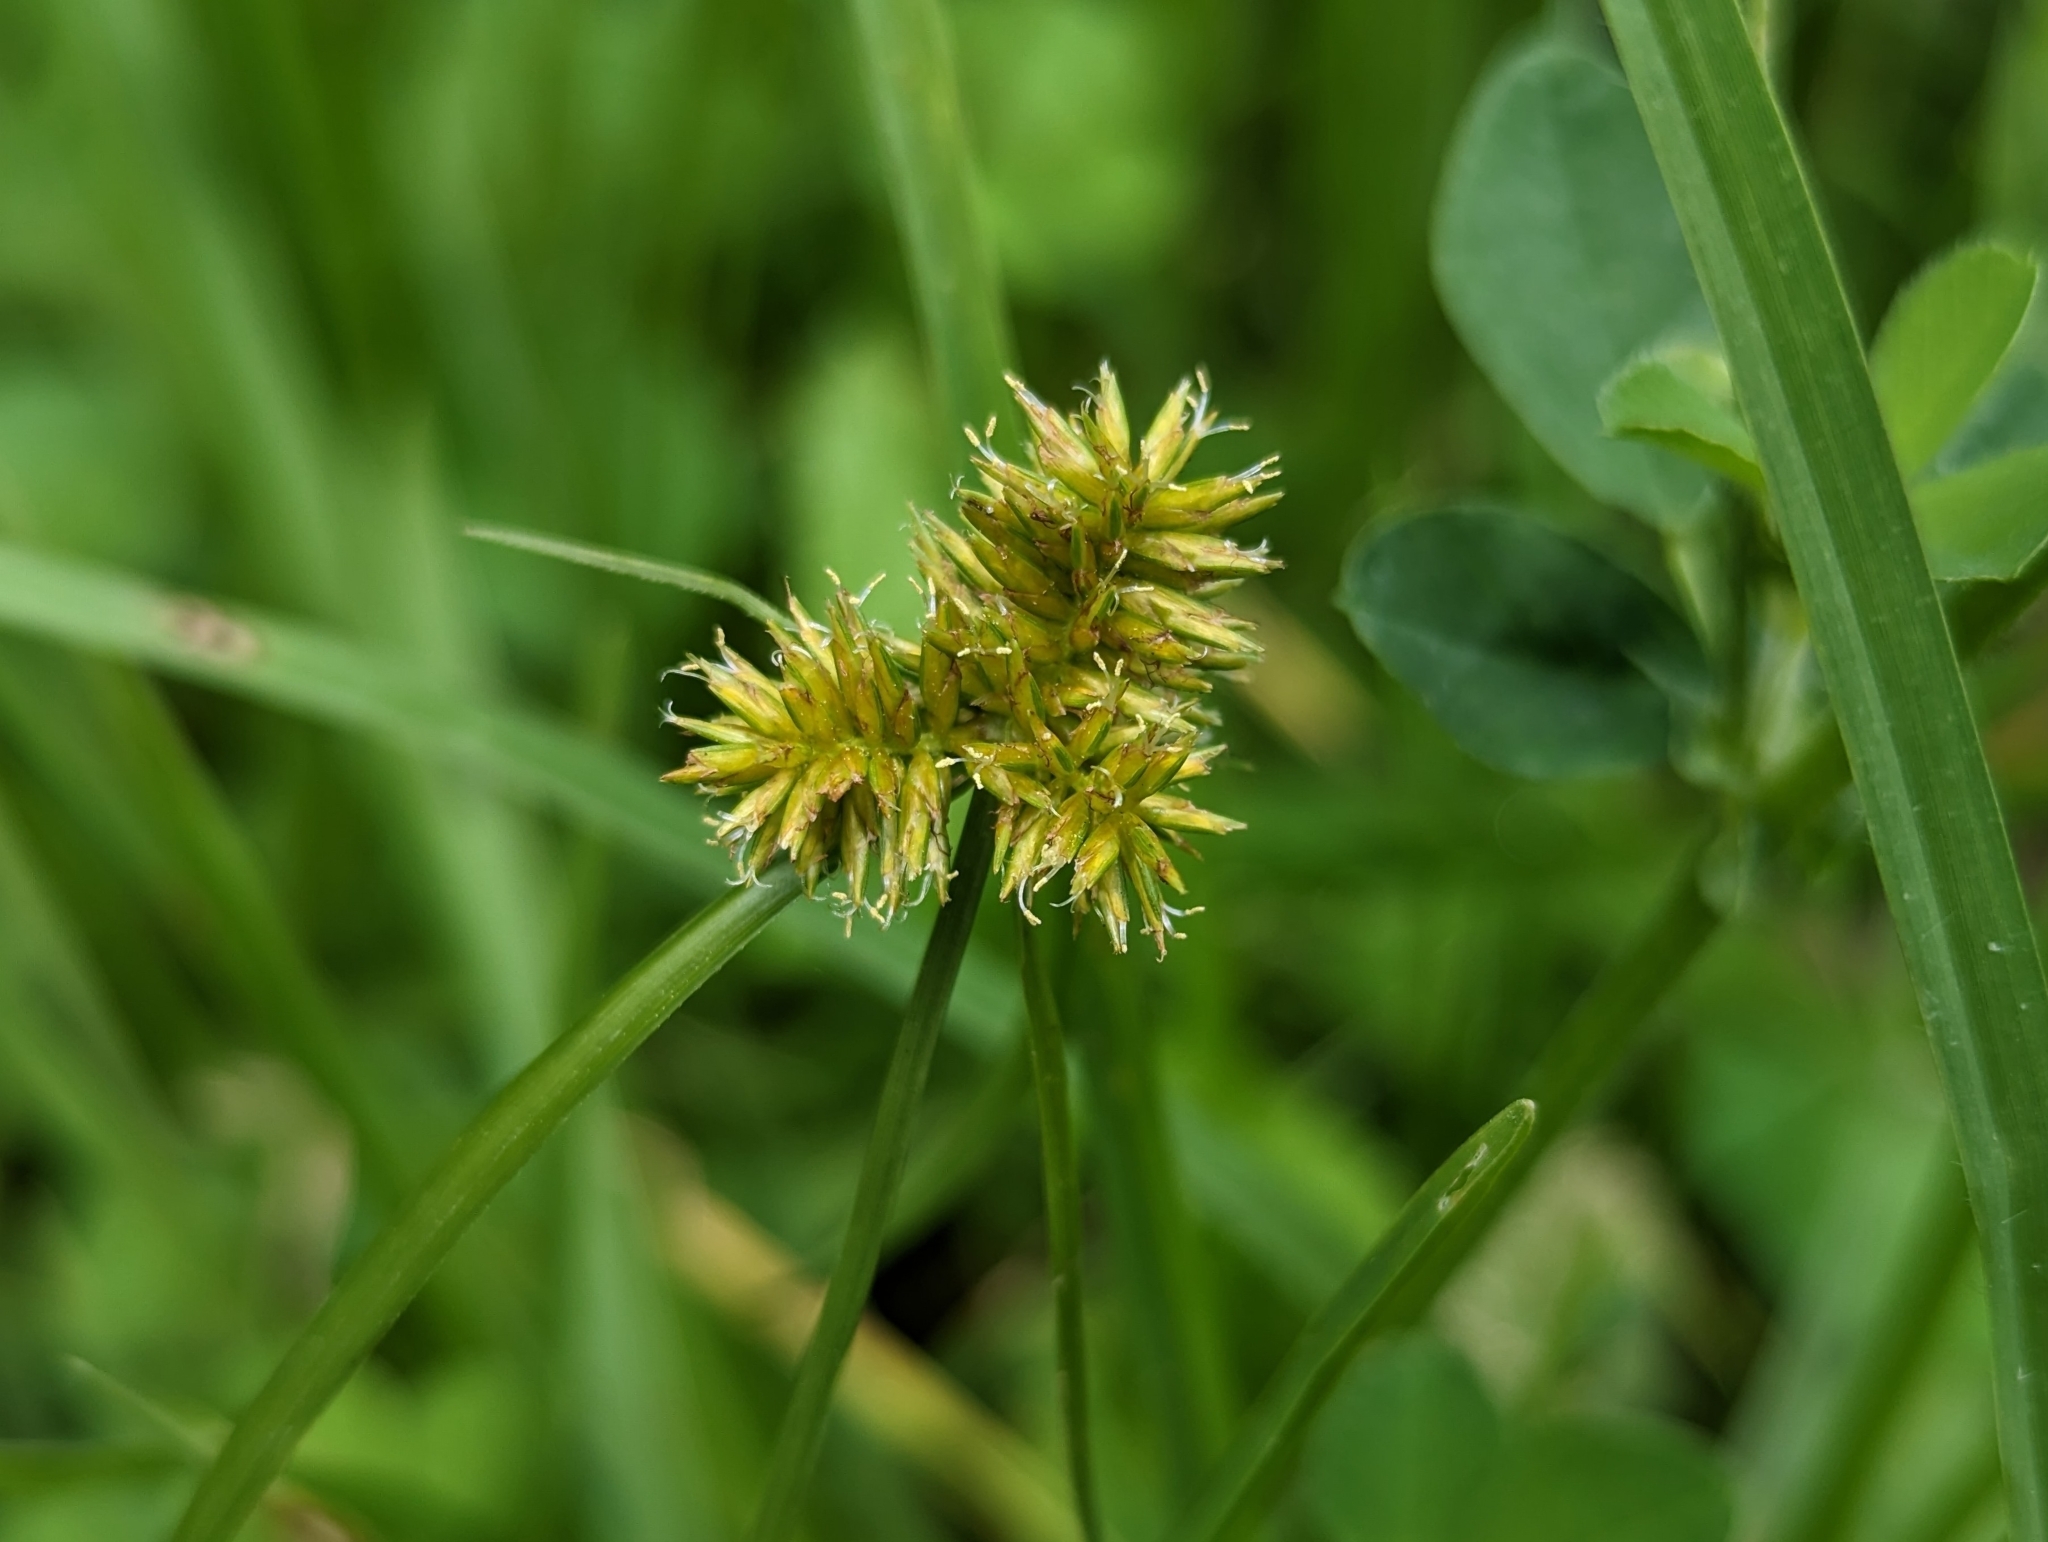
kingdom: Plantae
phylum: Tracheophyta
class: Liliopsida
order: Poales
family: Cyperaceae
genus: Cyperus
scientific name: Cyperus odoratus
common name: Fragrant flatsedge
